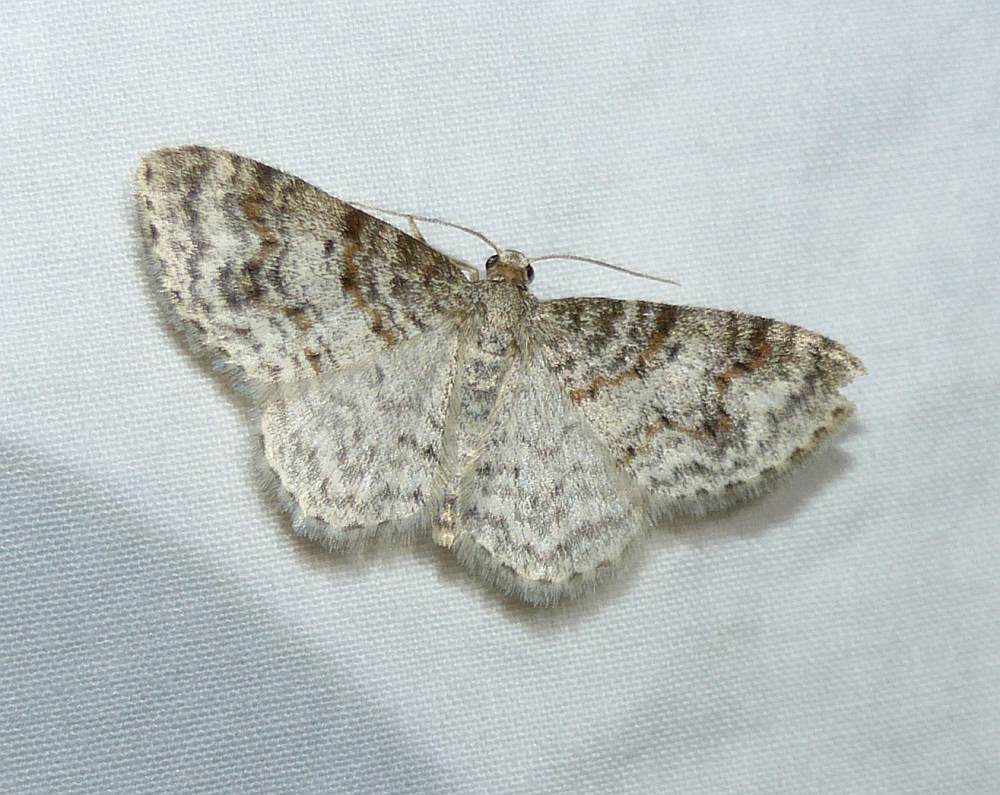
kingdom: Animalia
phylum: Arthropoda
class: Insecta
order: Lepidoptera
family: Geometridae
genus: Hydrelia
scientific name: Hydrelia inornata
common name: Unadorned carpet moth
